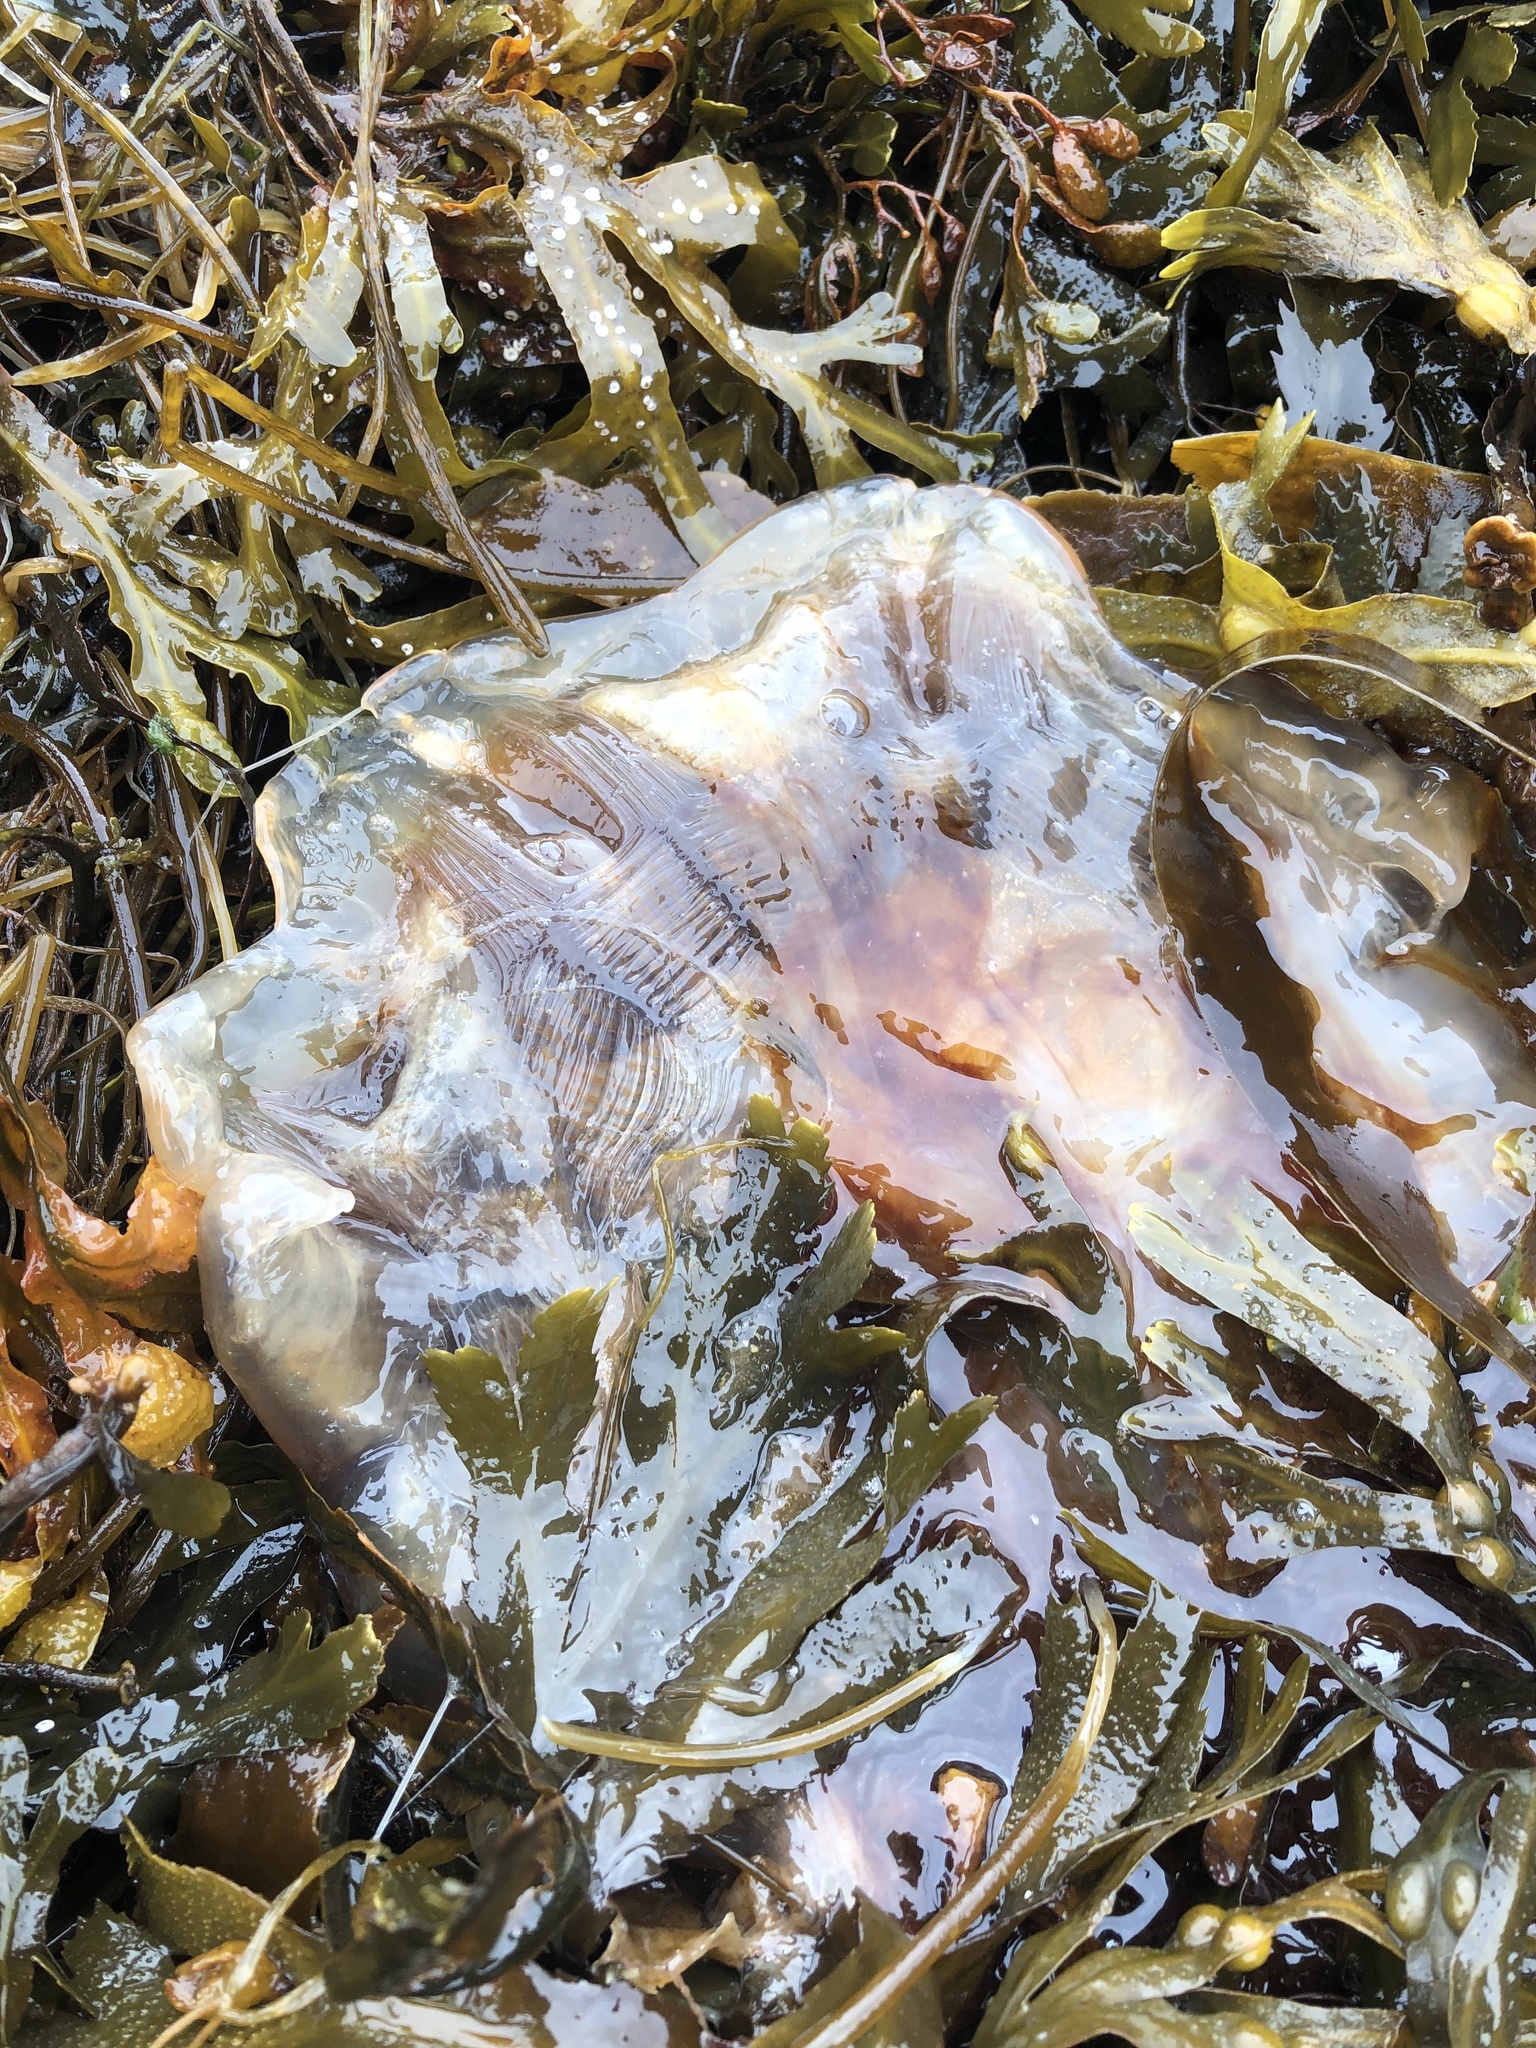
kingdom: Animalia
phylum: Cnidaria
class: Scyphozoa
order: Semaeostomeae
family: Cyaneidae
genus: Cyanea
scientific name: Cyanea capillata
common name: Lion's mane jellyfish
